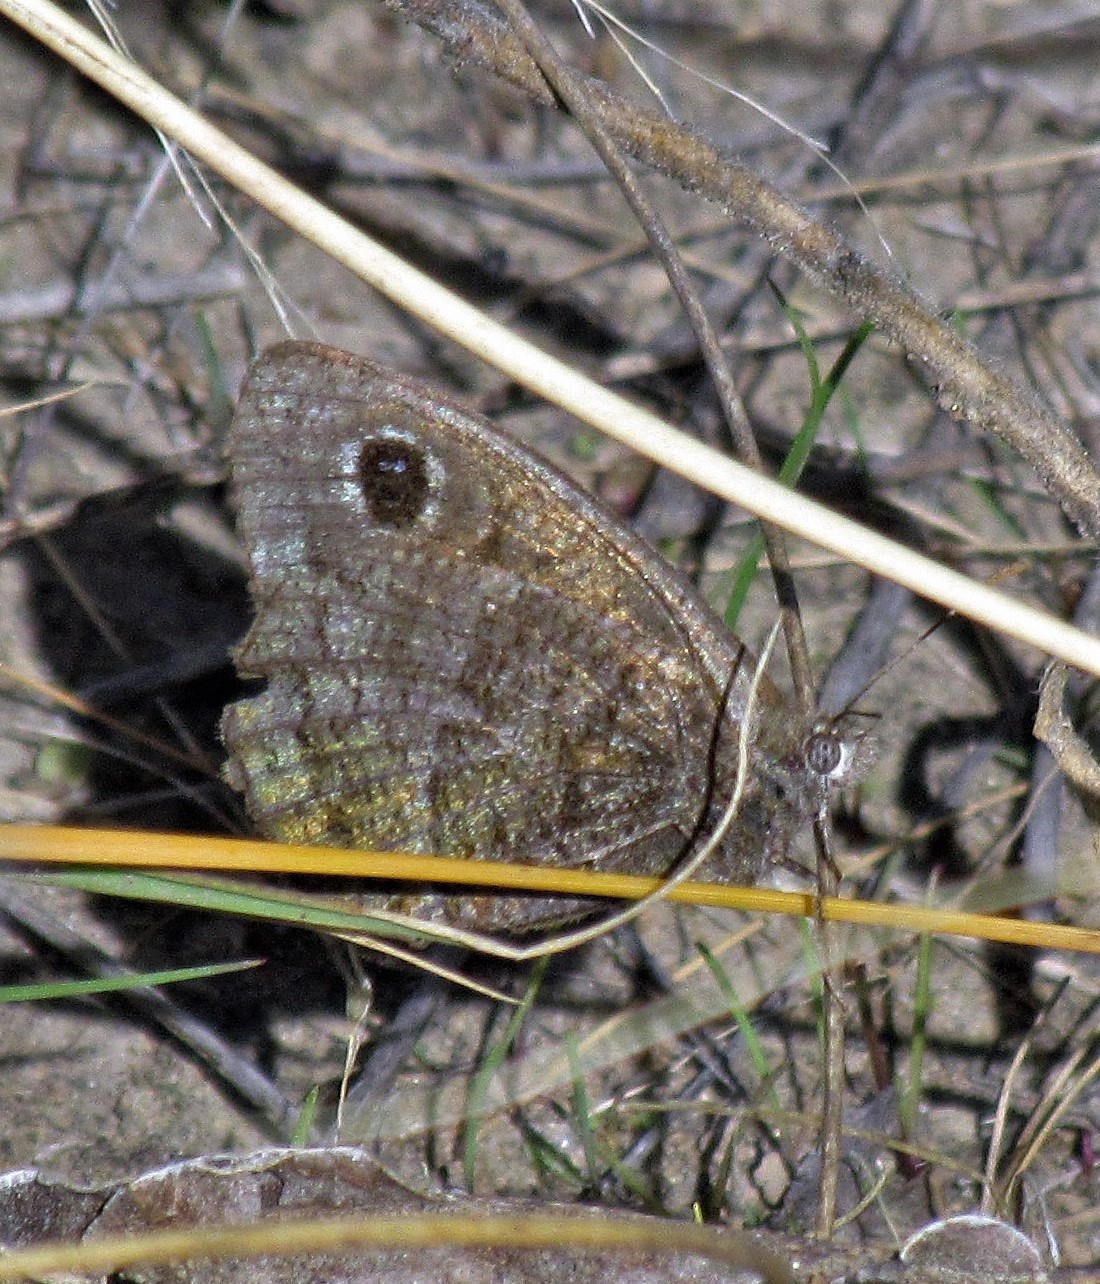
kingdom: Animalia
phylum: Arthropoda
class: Insecta
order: Lepidoptera
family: Nymphalidae
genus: Pampasatyrus
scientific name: Pampasatyrus quies
